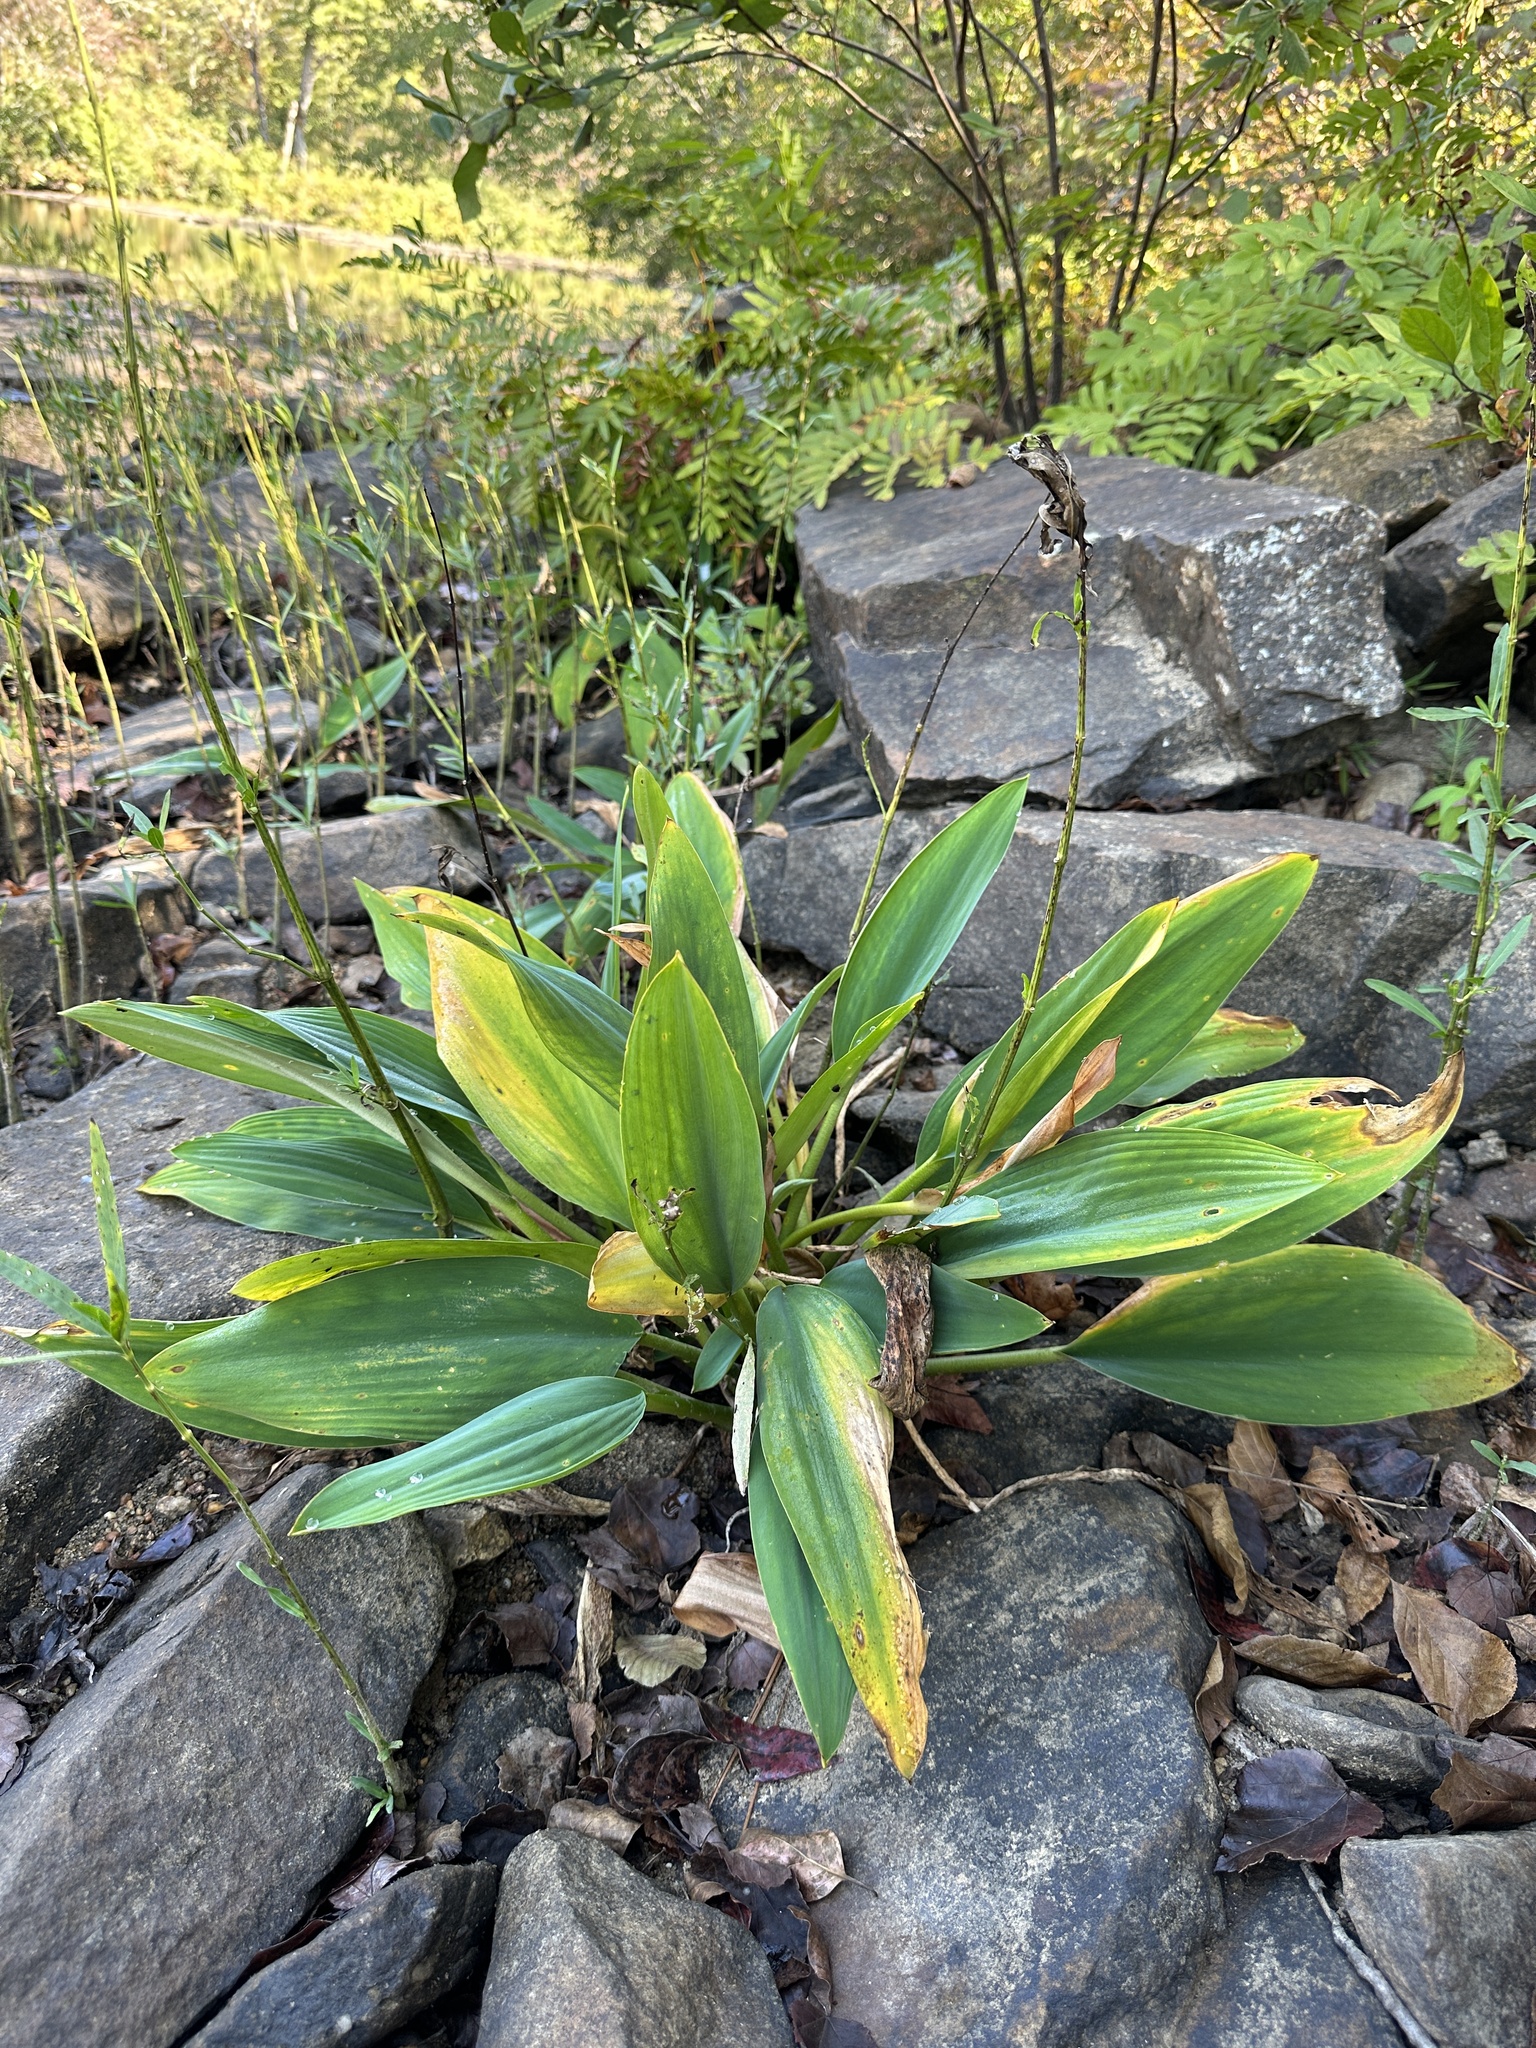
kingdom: Plantae
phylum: Tracheophyta
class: Liliopsida
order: Alismatales
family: Araceae
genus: Orontium
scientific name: Orontium aquaticum
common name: Golden-club
